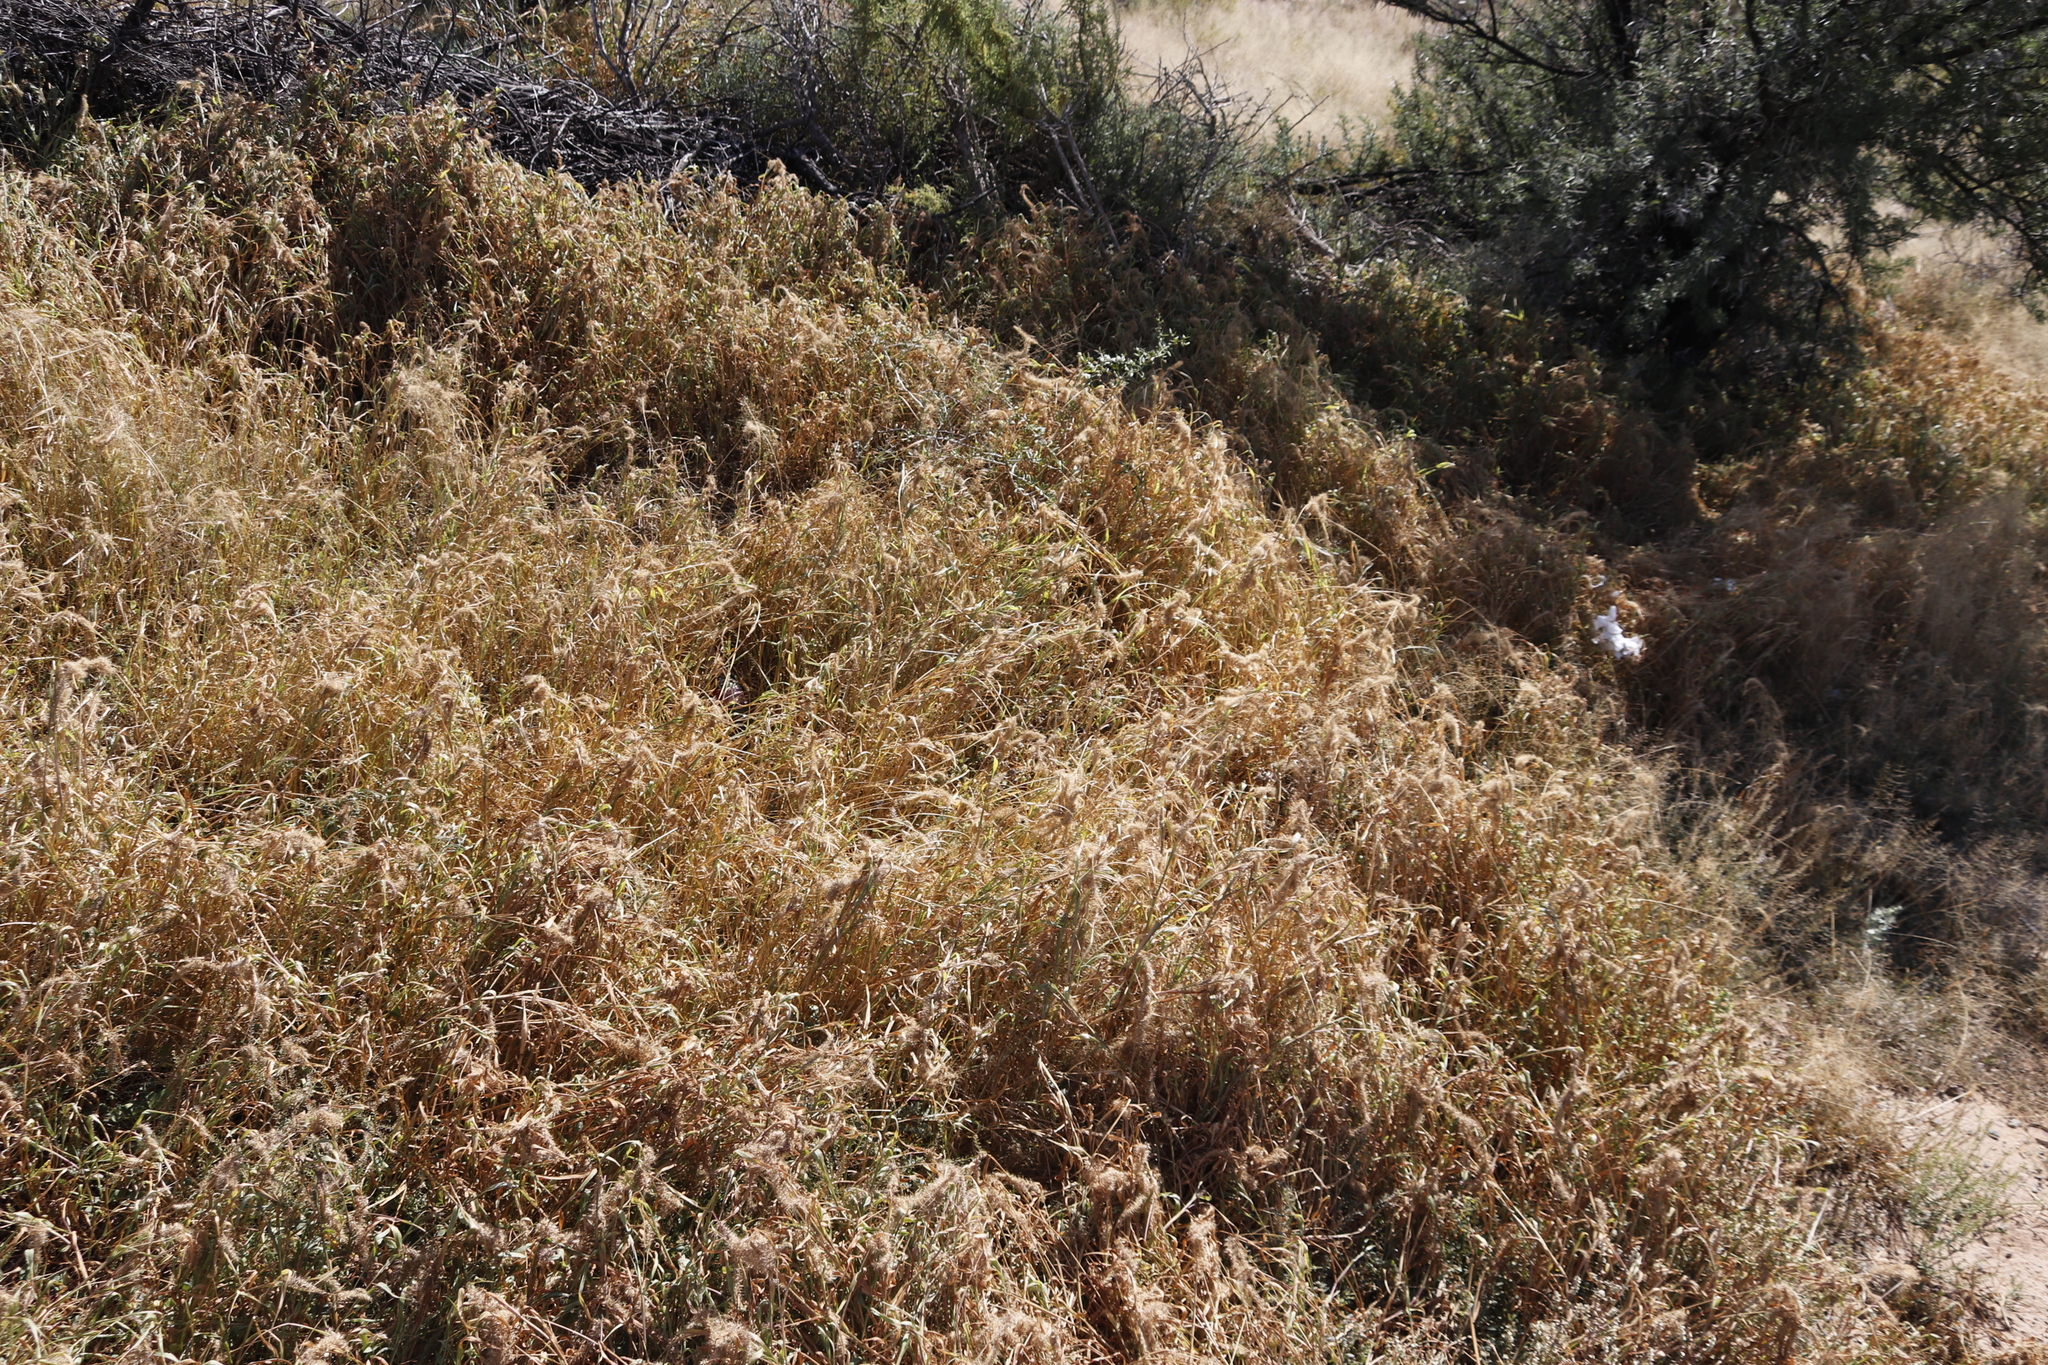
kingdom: Plantae
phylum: Tracheophyta
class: Liliopsida
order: Poales
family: Poaceae
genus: Setaria
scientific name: Setaria verticillata
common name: Hooked bristlegrass
